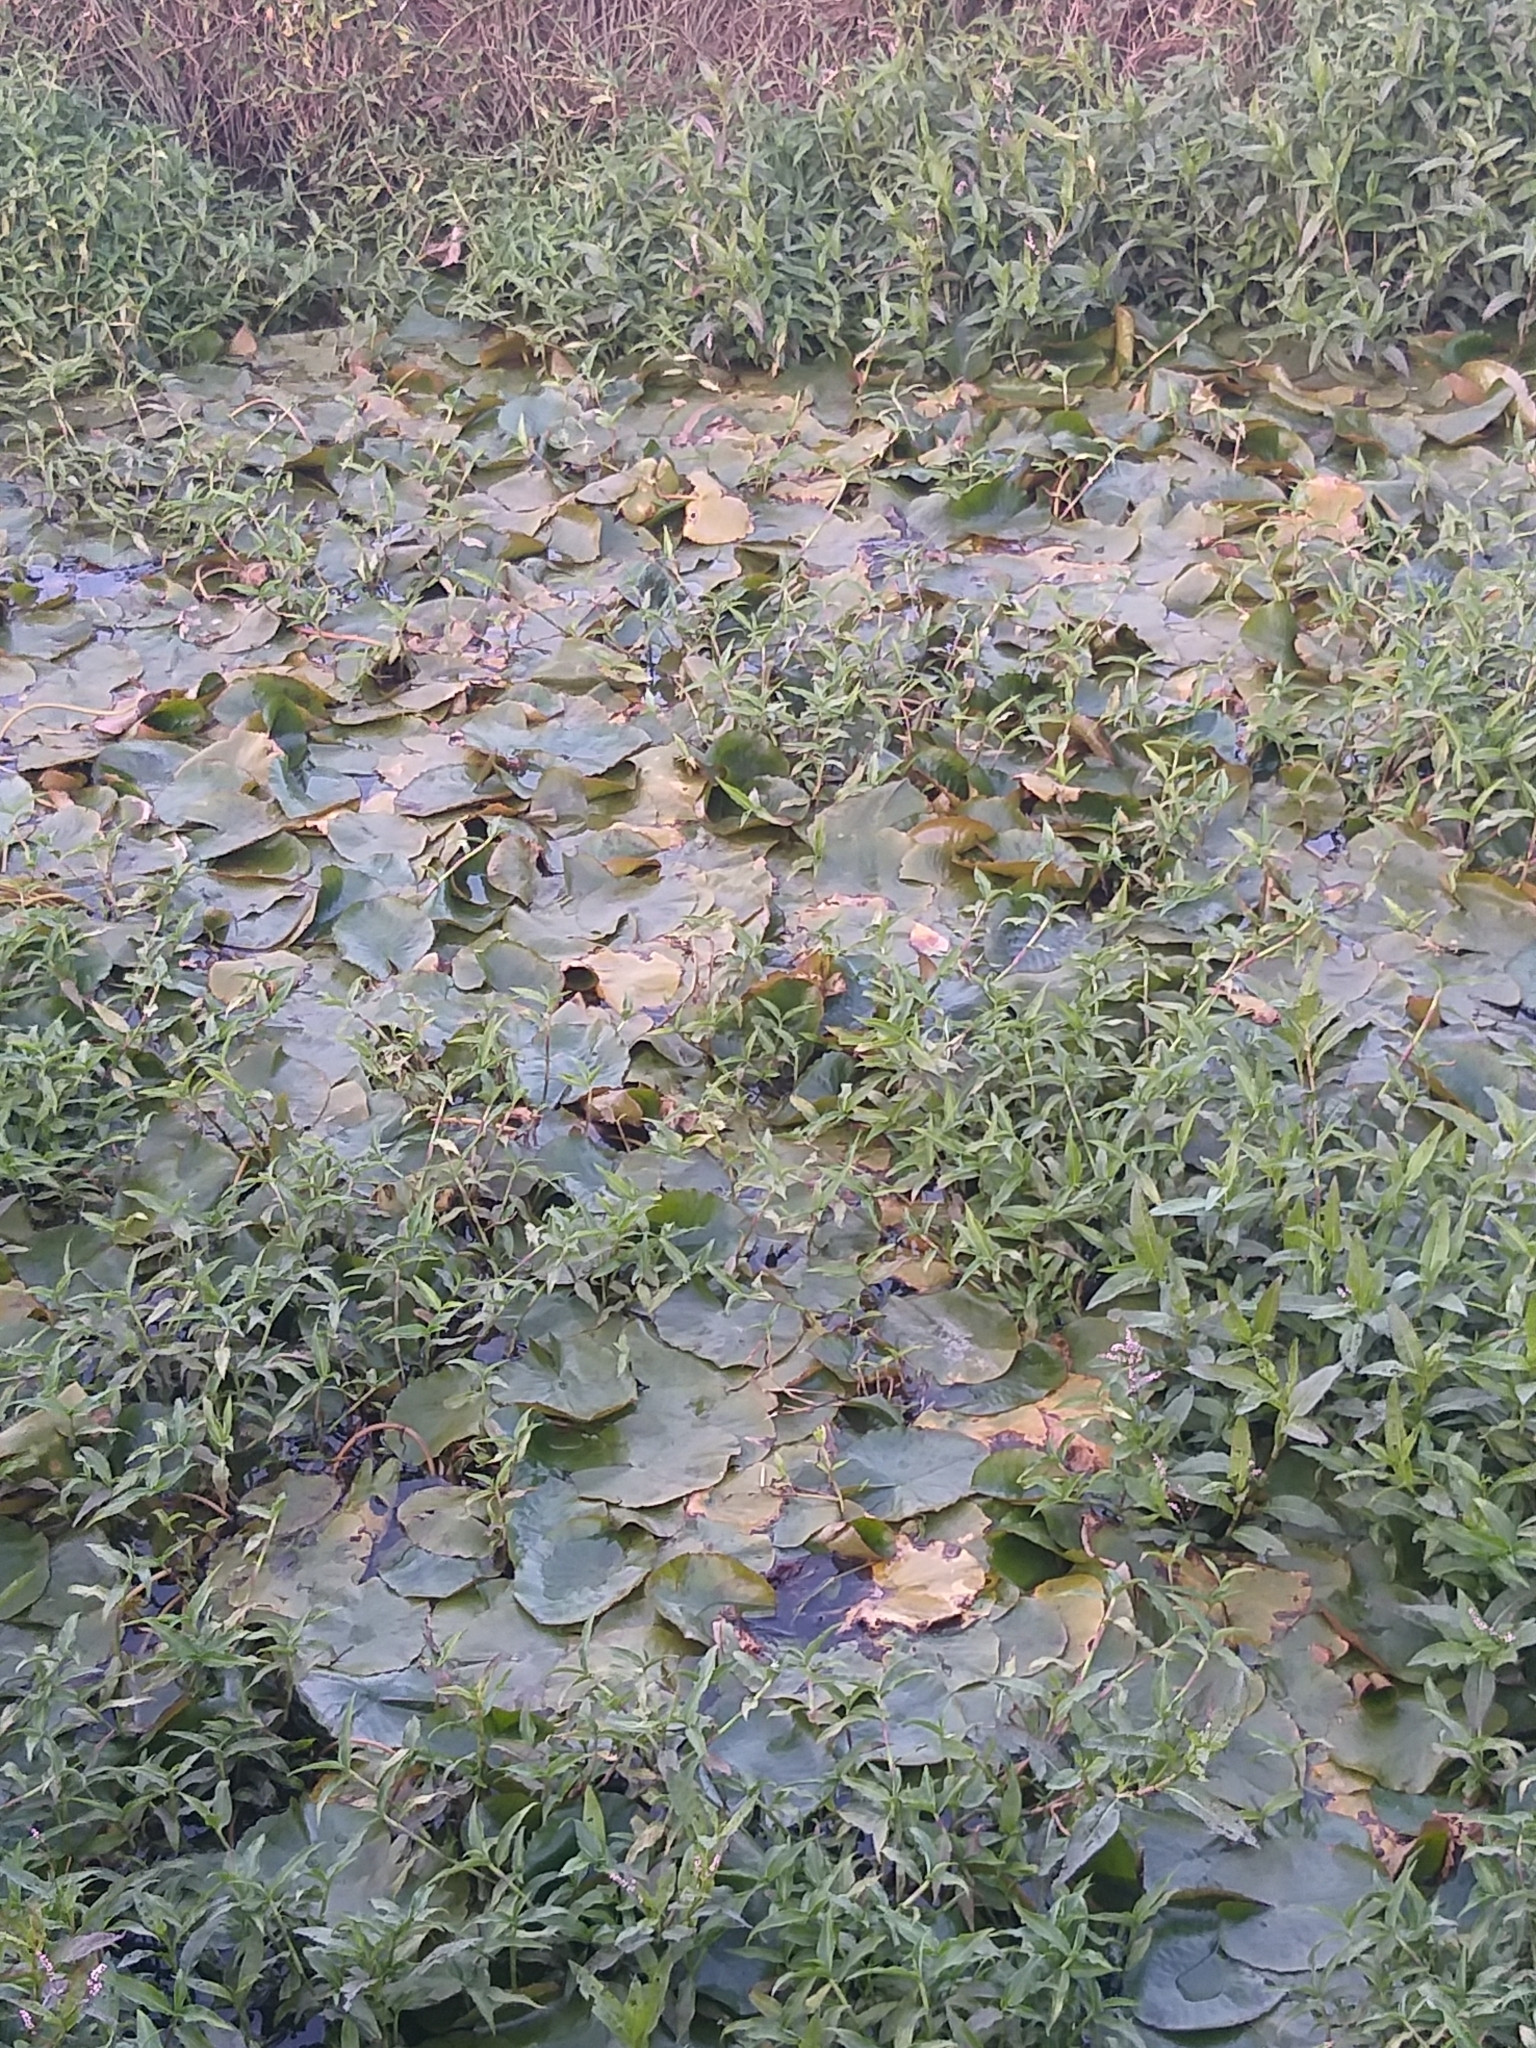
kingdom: Plantae
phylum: Tracheophyta
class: Magnoliopsida
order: Nymphaeales
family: Nymphaeaceae
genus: Nymphaea
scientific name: Nymphaea mexicana
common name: Banana water-lily
